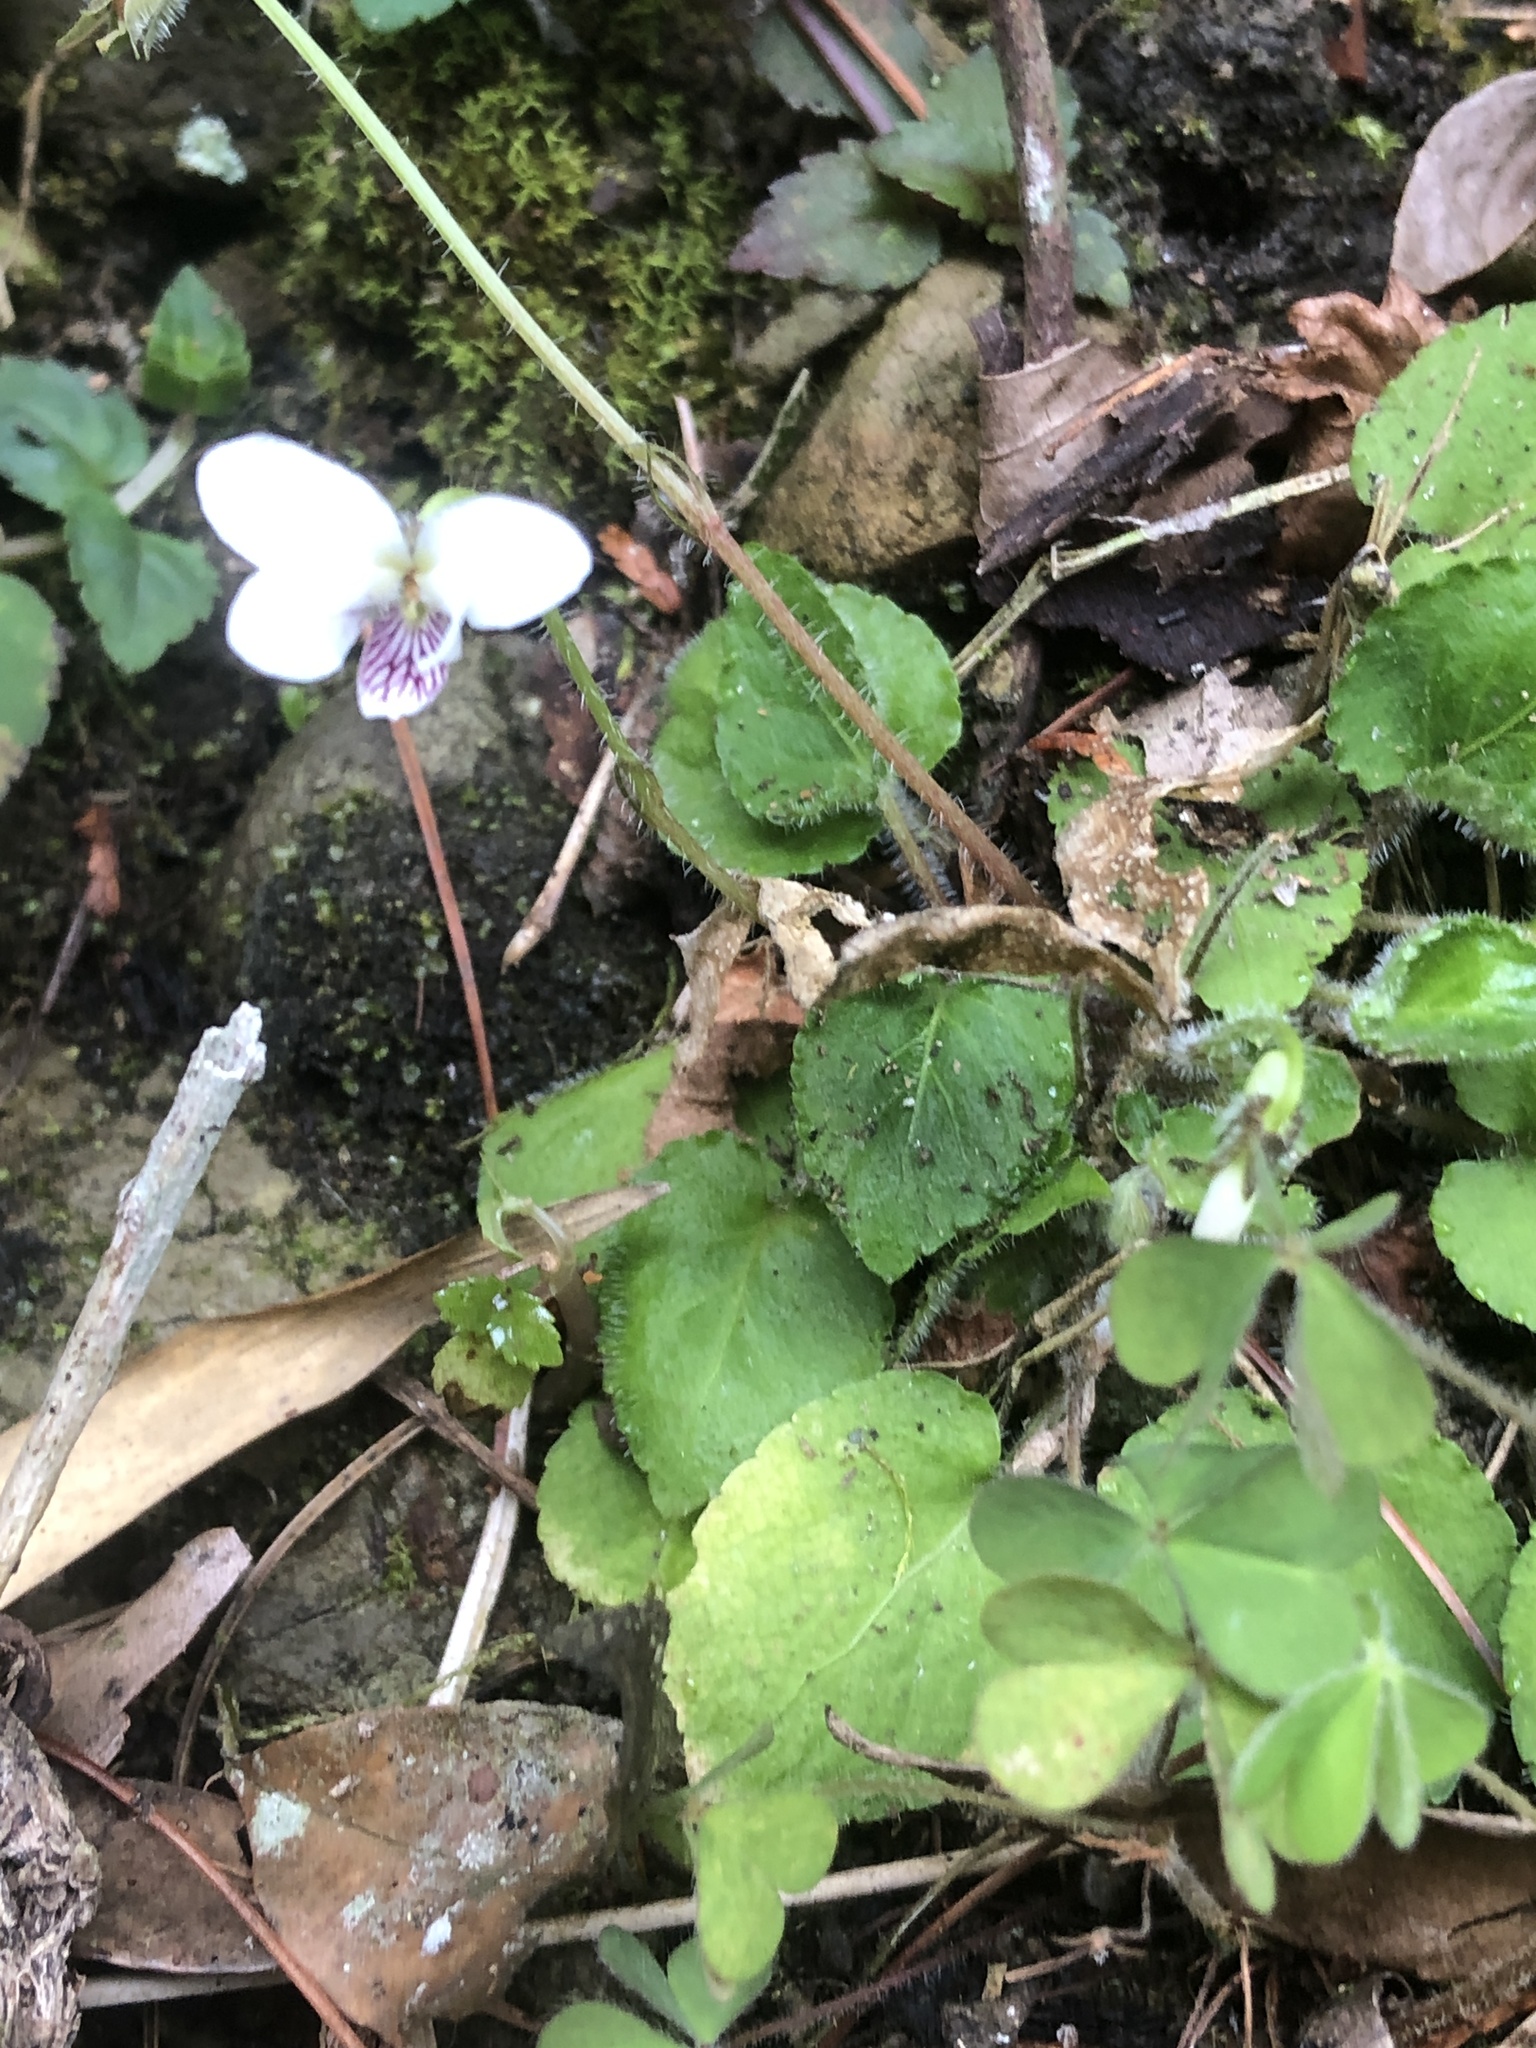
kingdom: Plantae
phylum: Tracheophyta
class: Magnoliopsida
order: Malpighiales
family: Violaceae
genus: Viola
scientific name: Viola adenothrix
